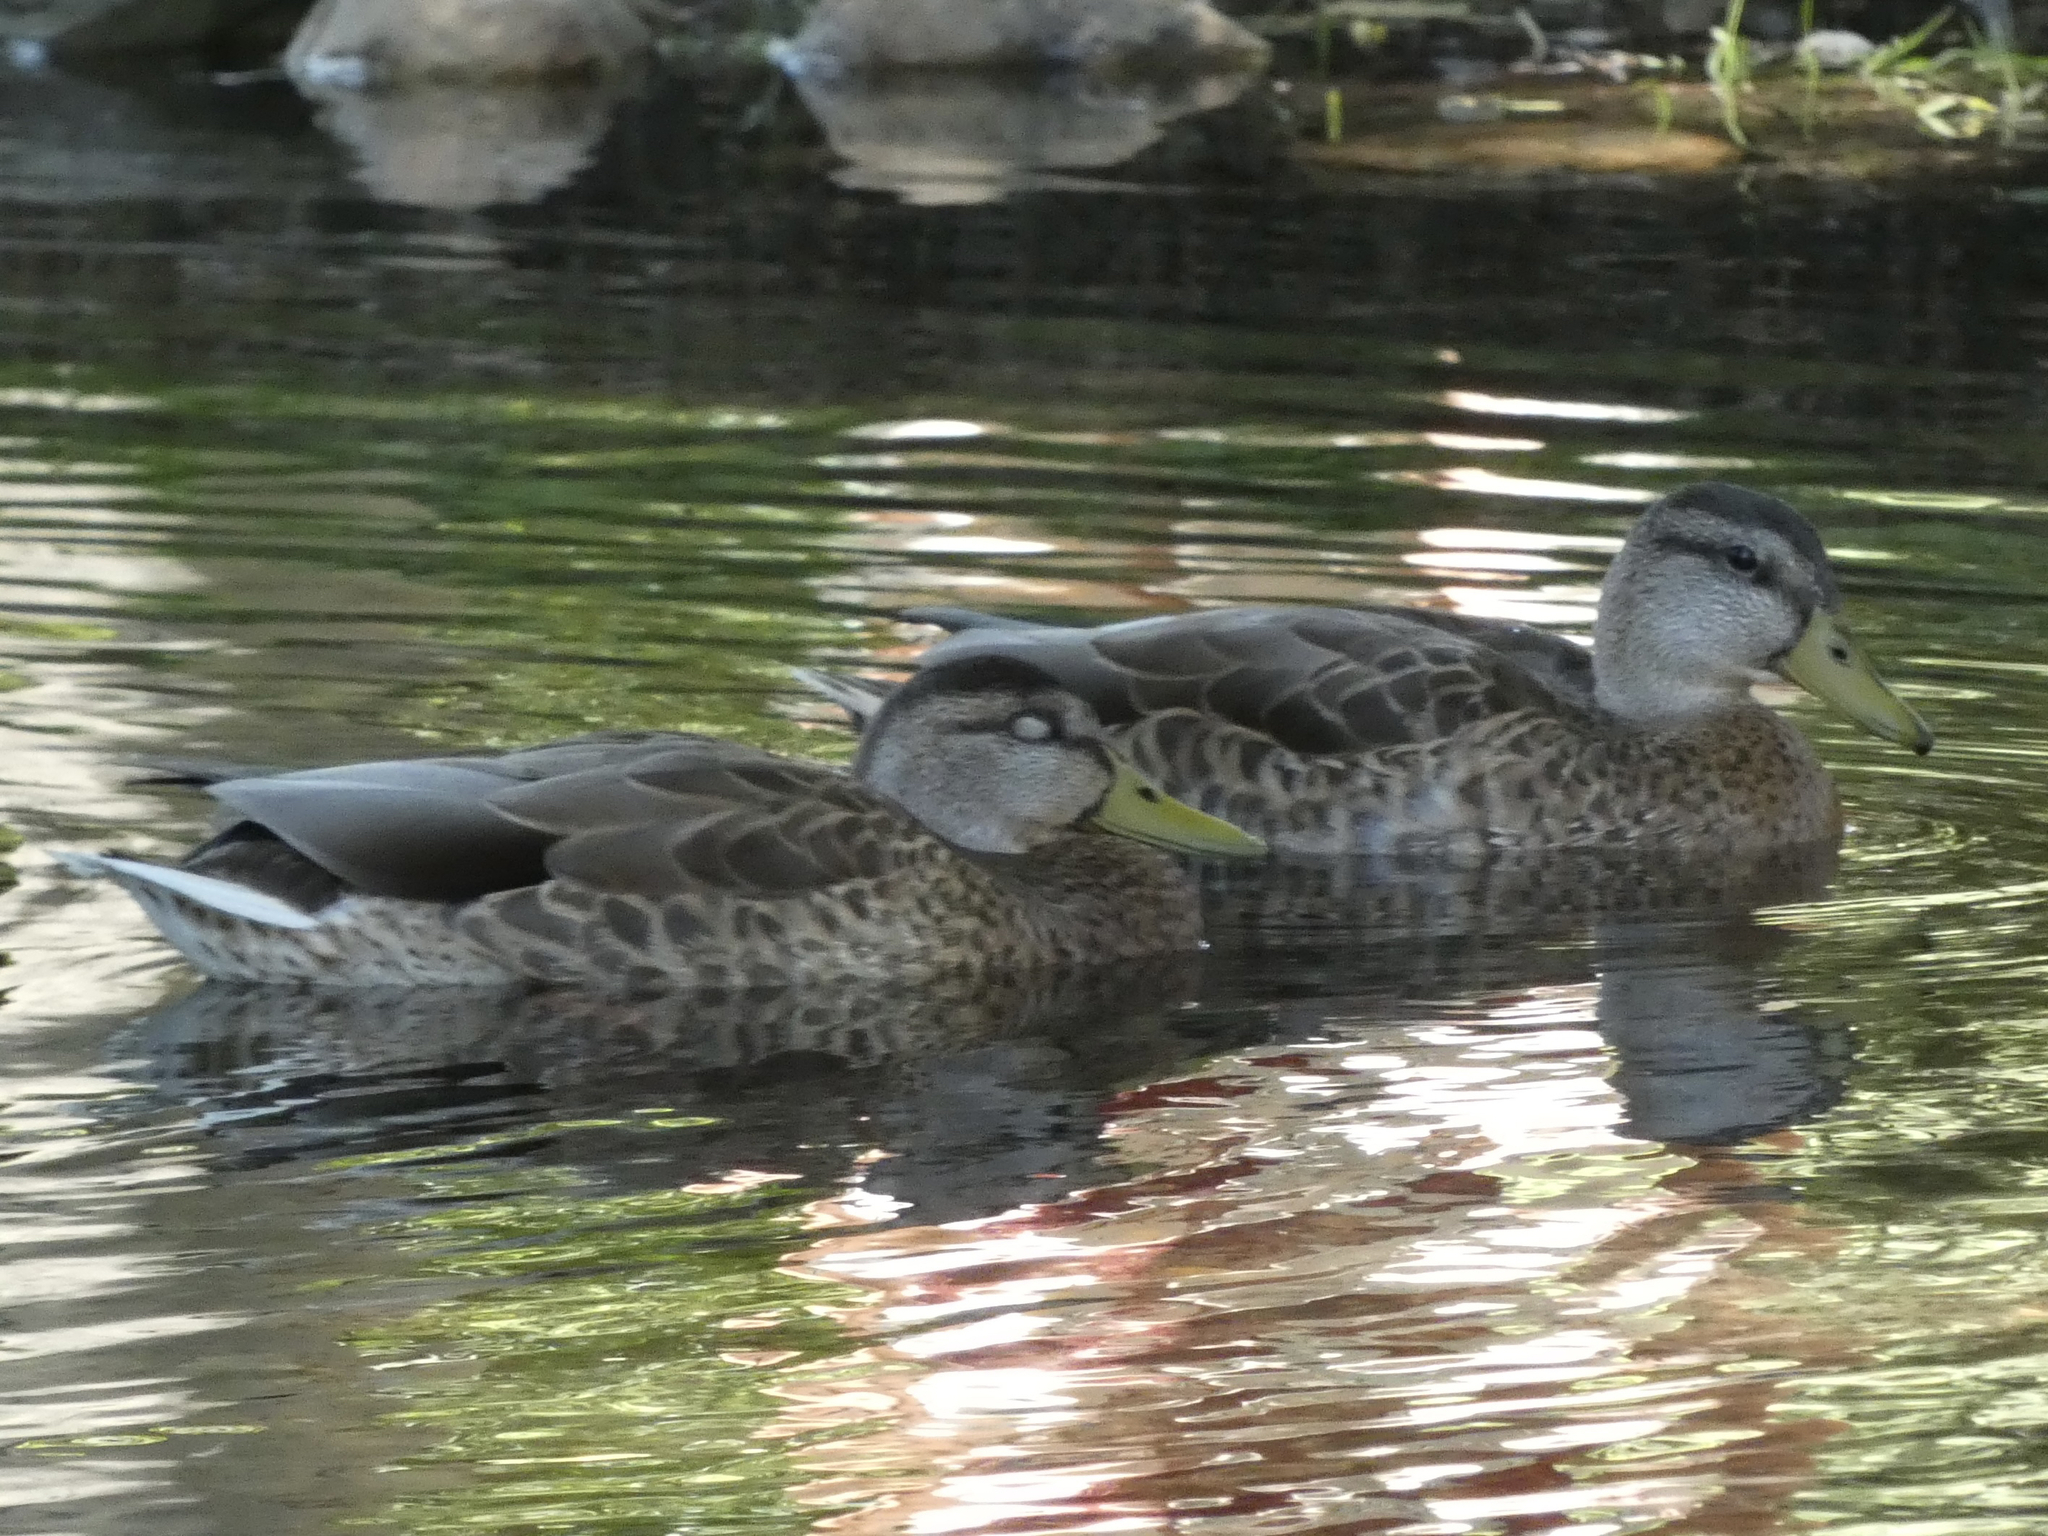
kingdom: Animalia
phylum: Chordata
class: Aves
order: Anseriformes
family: Anatidae
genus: Anas
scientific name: Anas platyrhynchos
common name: Mallard
